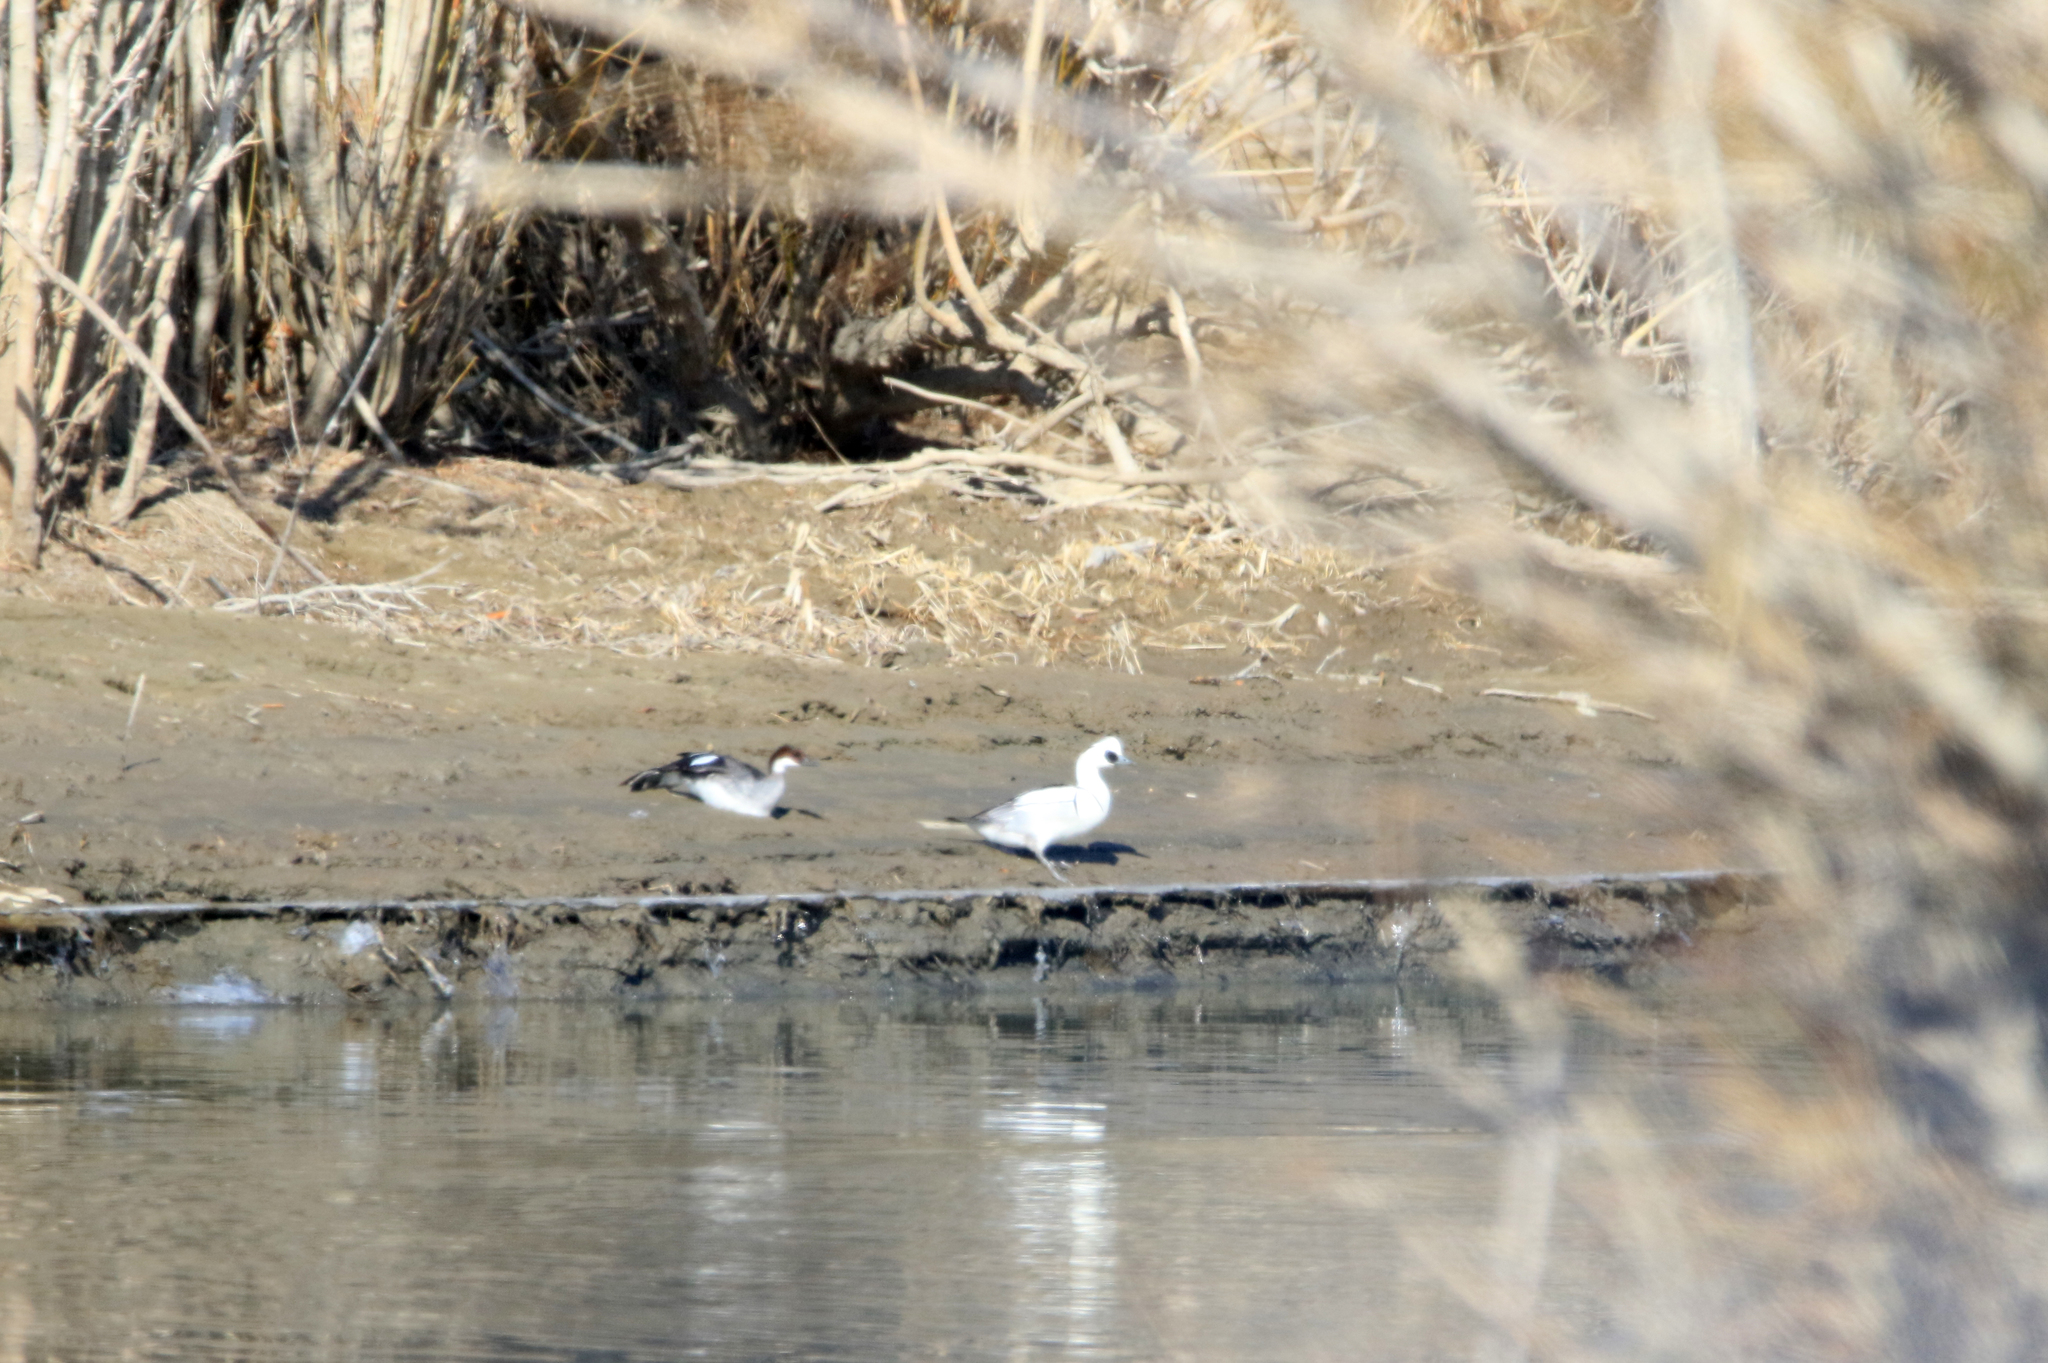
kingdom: Animalia
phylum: Chordata
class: Aves
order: Anseriformes
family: Anatidae
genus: Mergellus
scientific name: Mergellus albellus
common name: Smew
